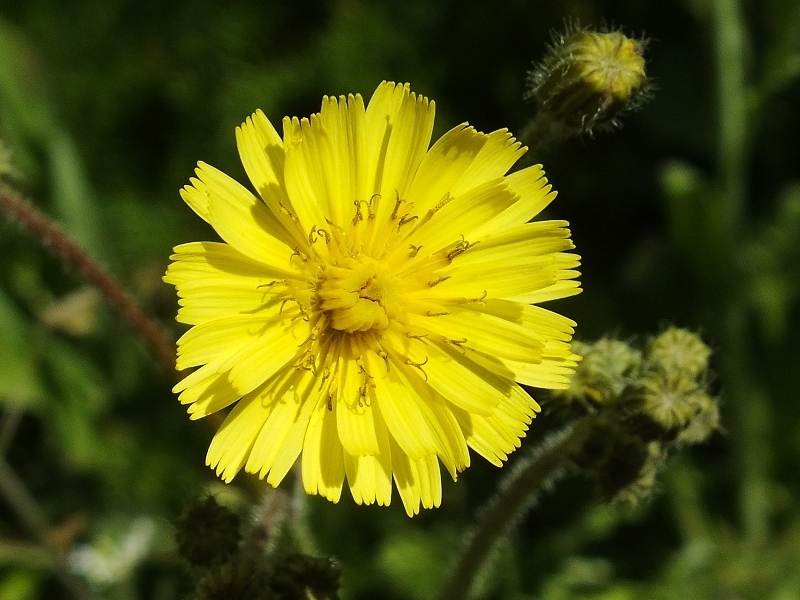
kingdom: Plantae
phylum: Tracheophyta
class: Magnoliopsida
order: Asterales
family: Asteraceae
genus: Crepis
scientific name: Crepis sancta
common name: Hawk's-beard
